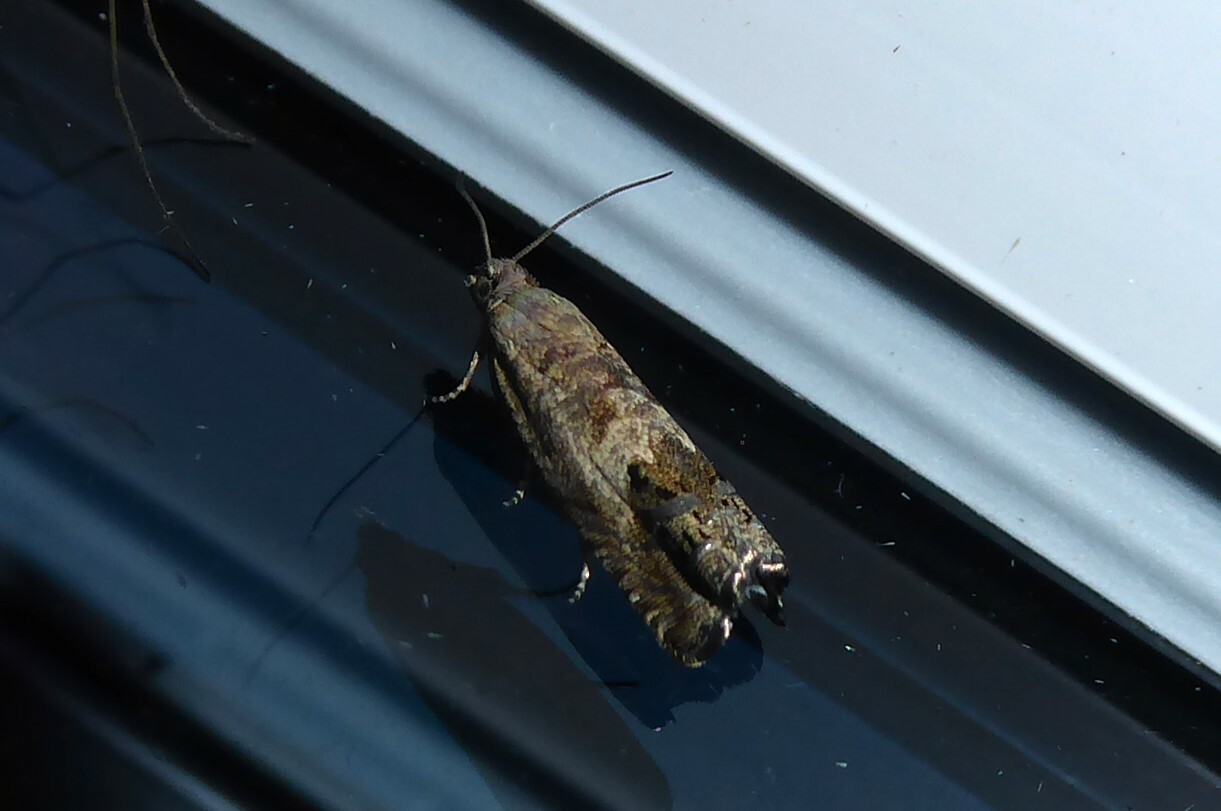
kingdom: Animalia
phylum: Arthropoda
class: Insecta
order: Lepidoptera
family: Tortricidae
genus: Cydia
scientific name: Cydia succedana
